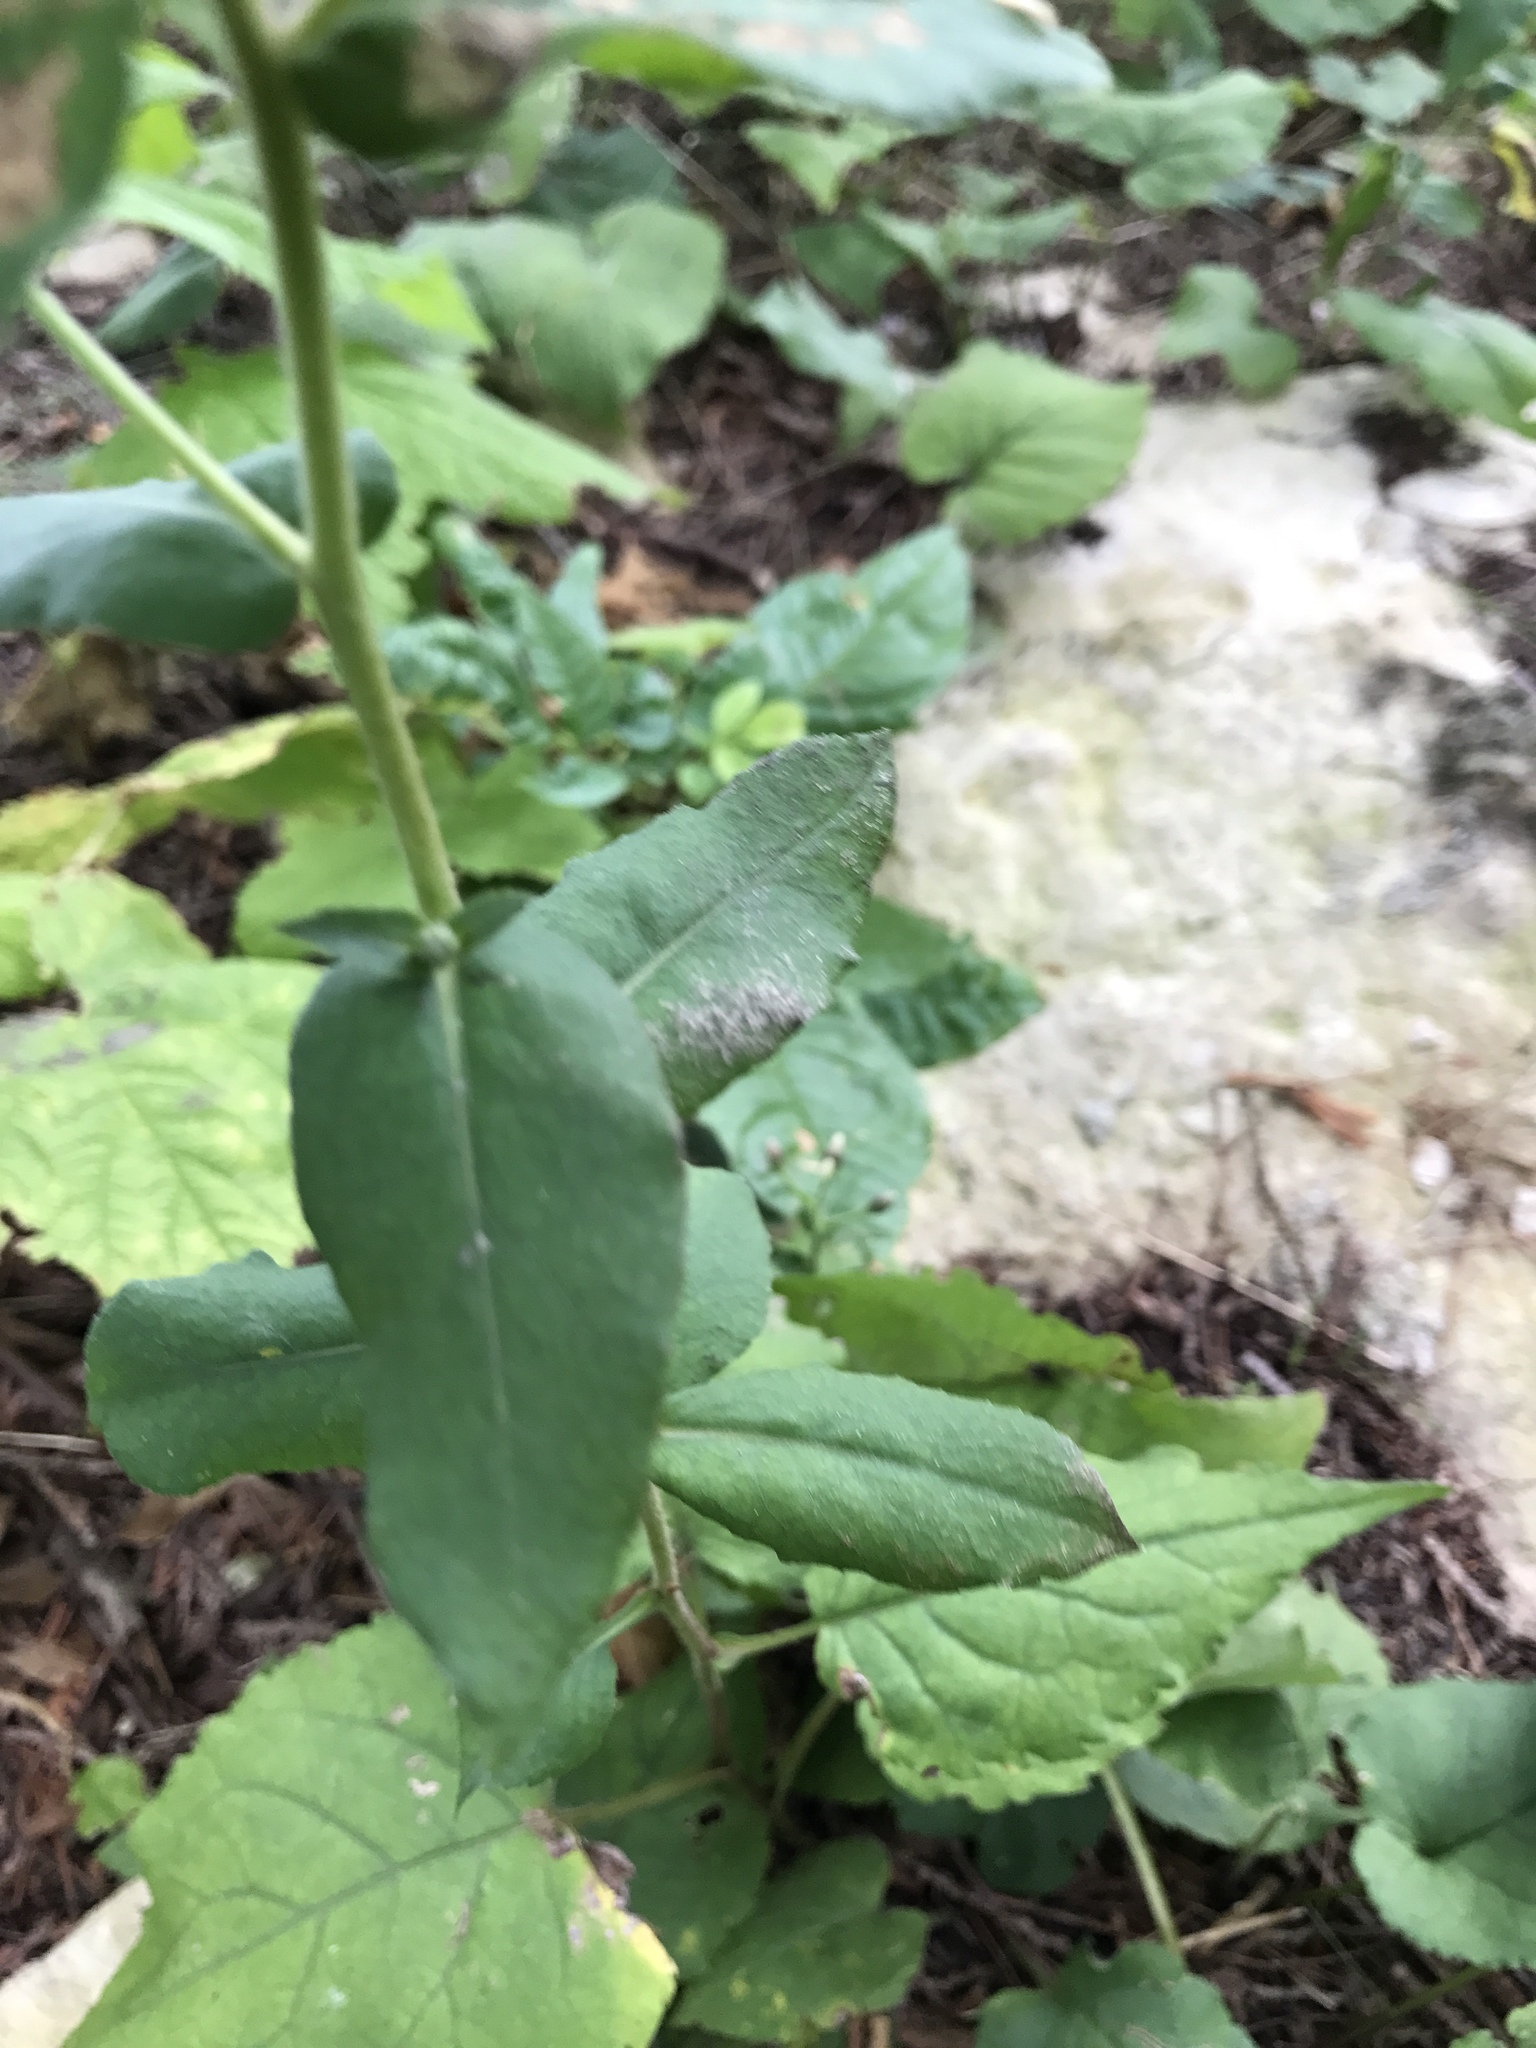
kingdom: Plantae
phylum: Tracheophyta
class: Magnoliopsida
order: Asterales
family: Asteraceae
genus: Eurybia
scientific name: Eurybia macrophylla
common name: Big-leaved aster
